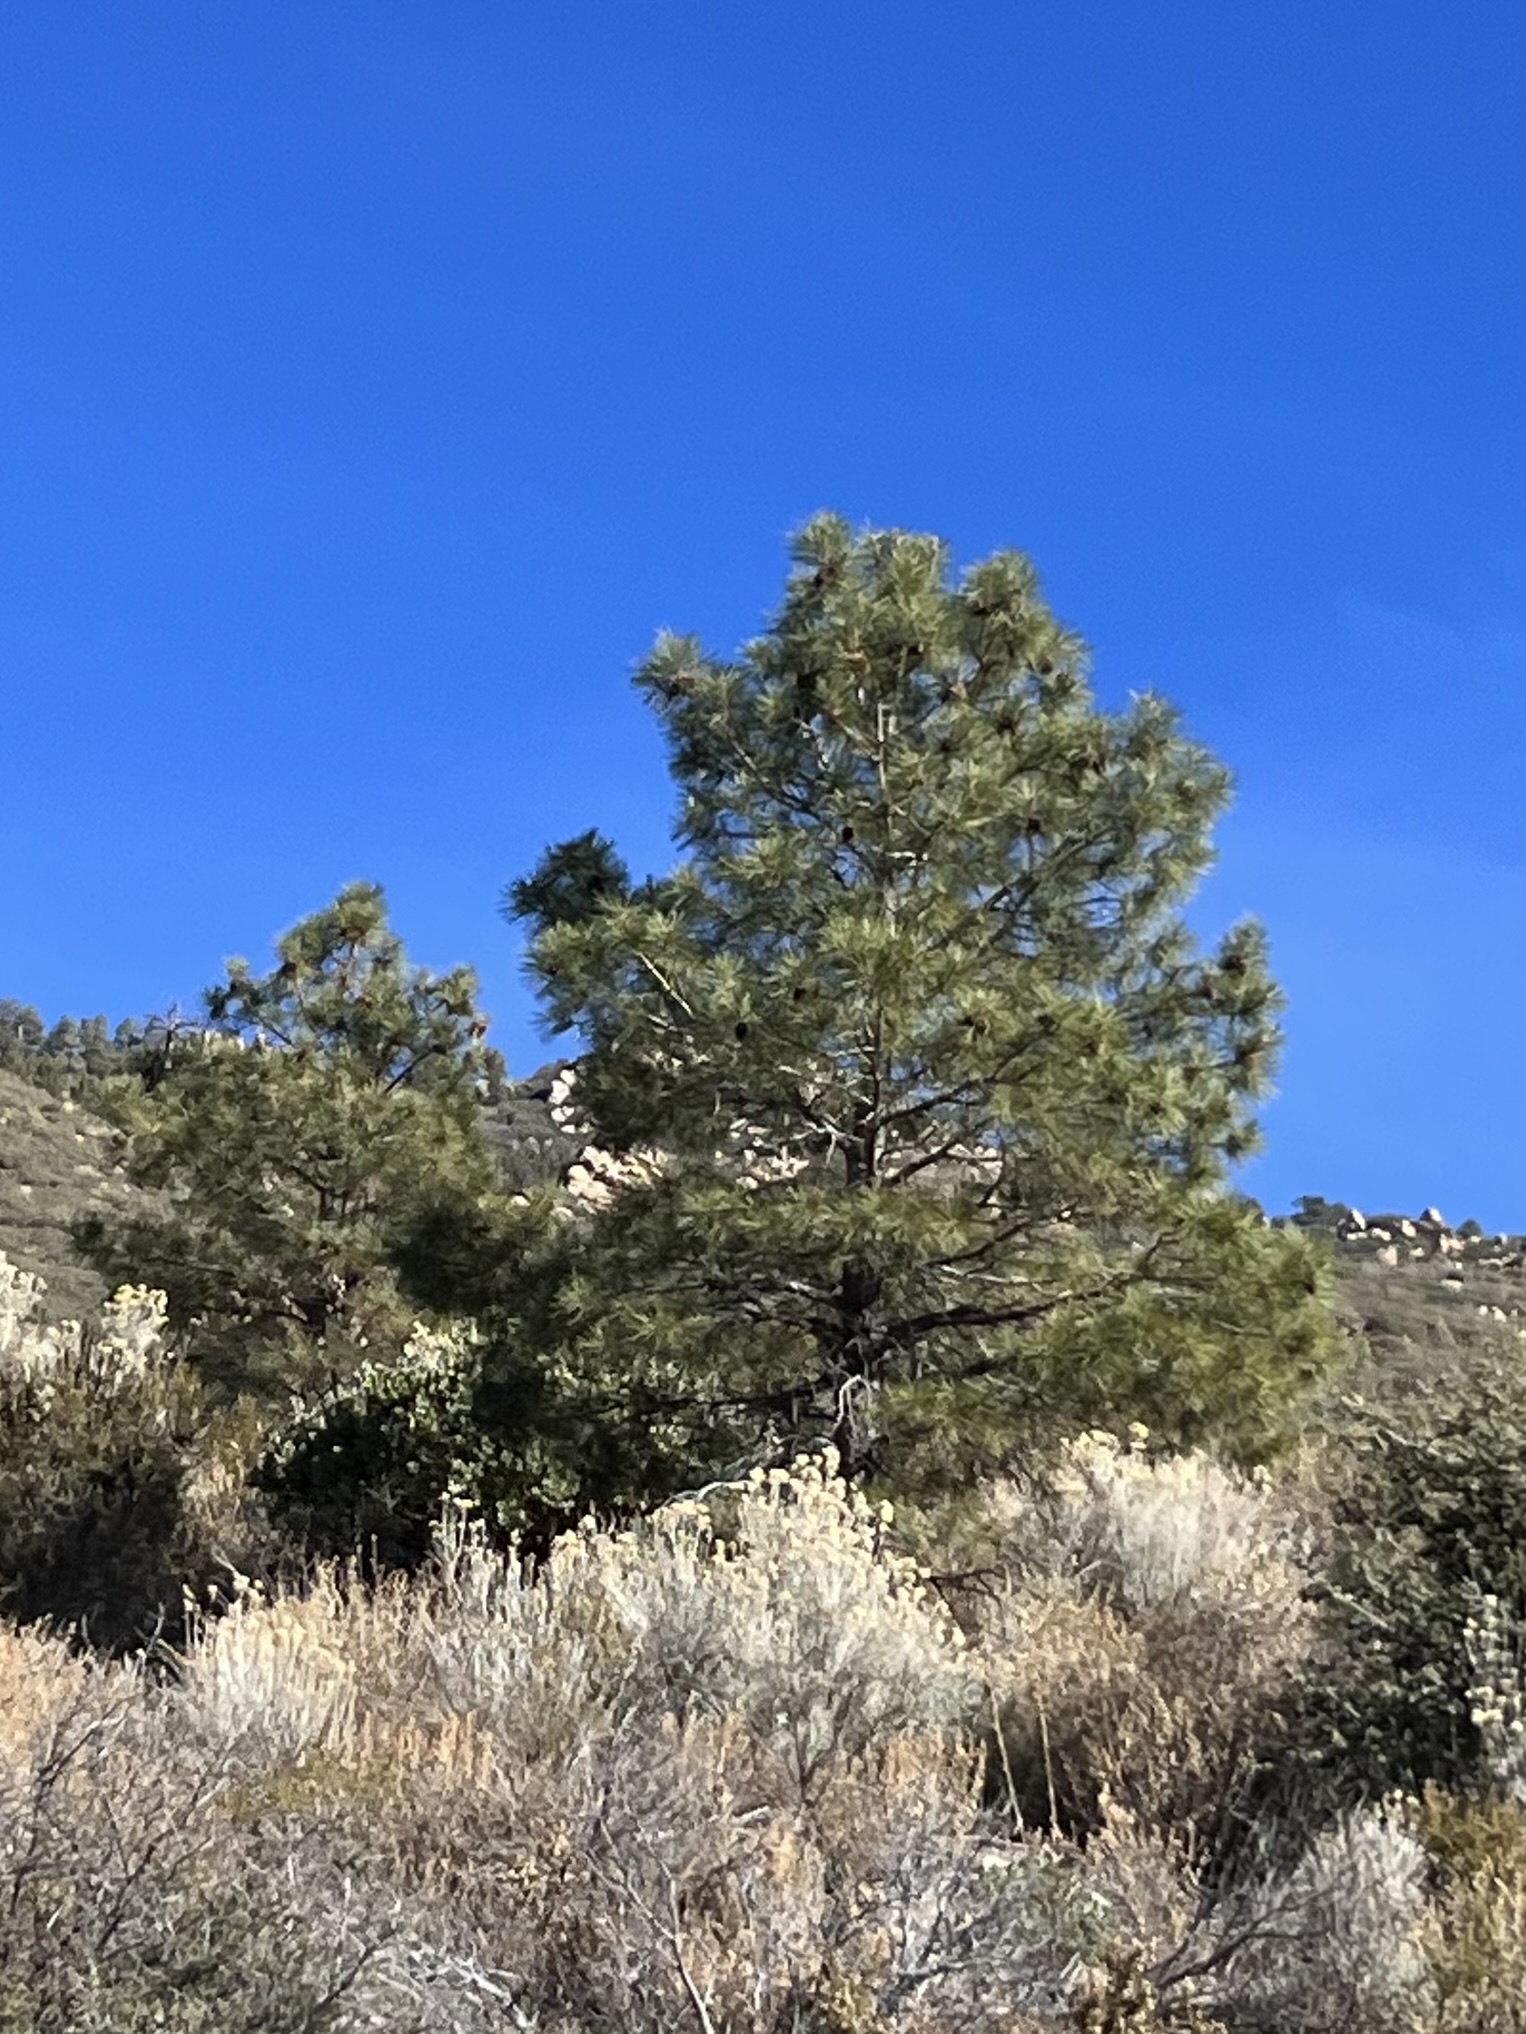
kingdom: Plantae
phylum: Tracheophyta
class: Pinopsida
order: Pinales
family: Pinaceae
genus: Pinus
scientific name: Pinus ponderosa
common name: Western yellow-pine
